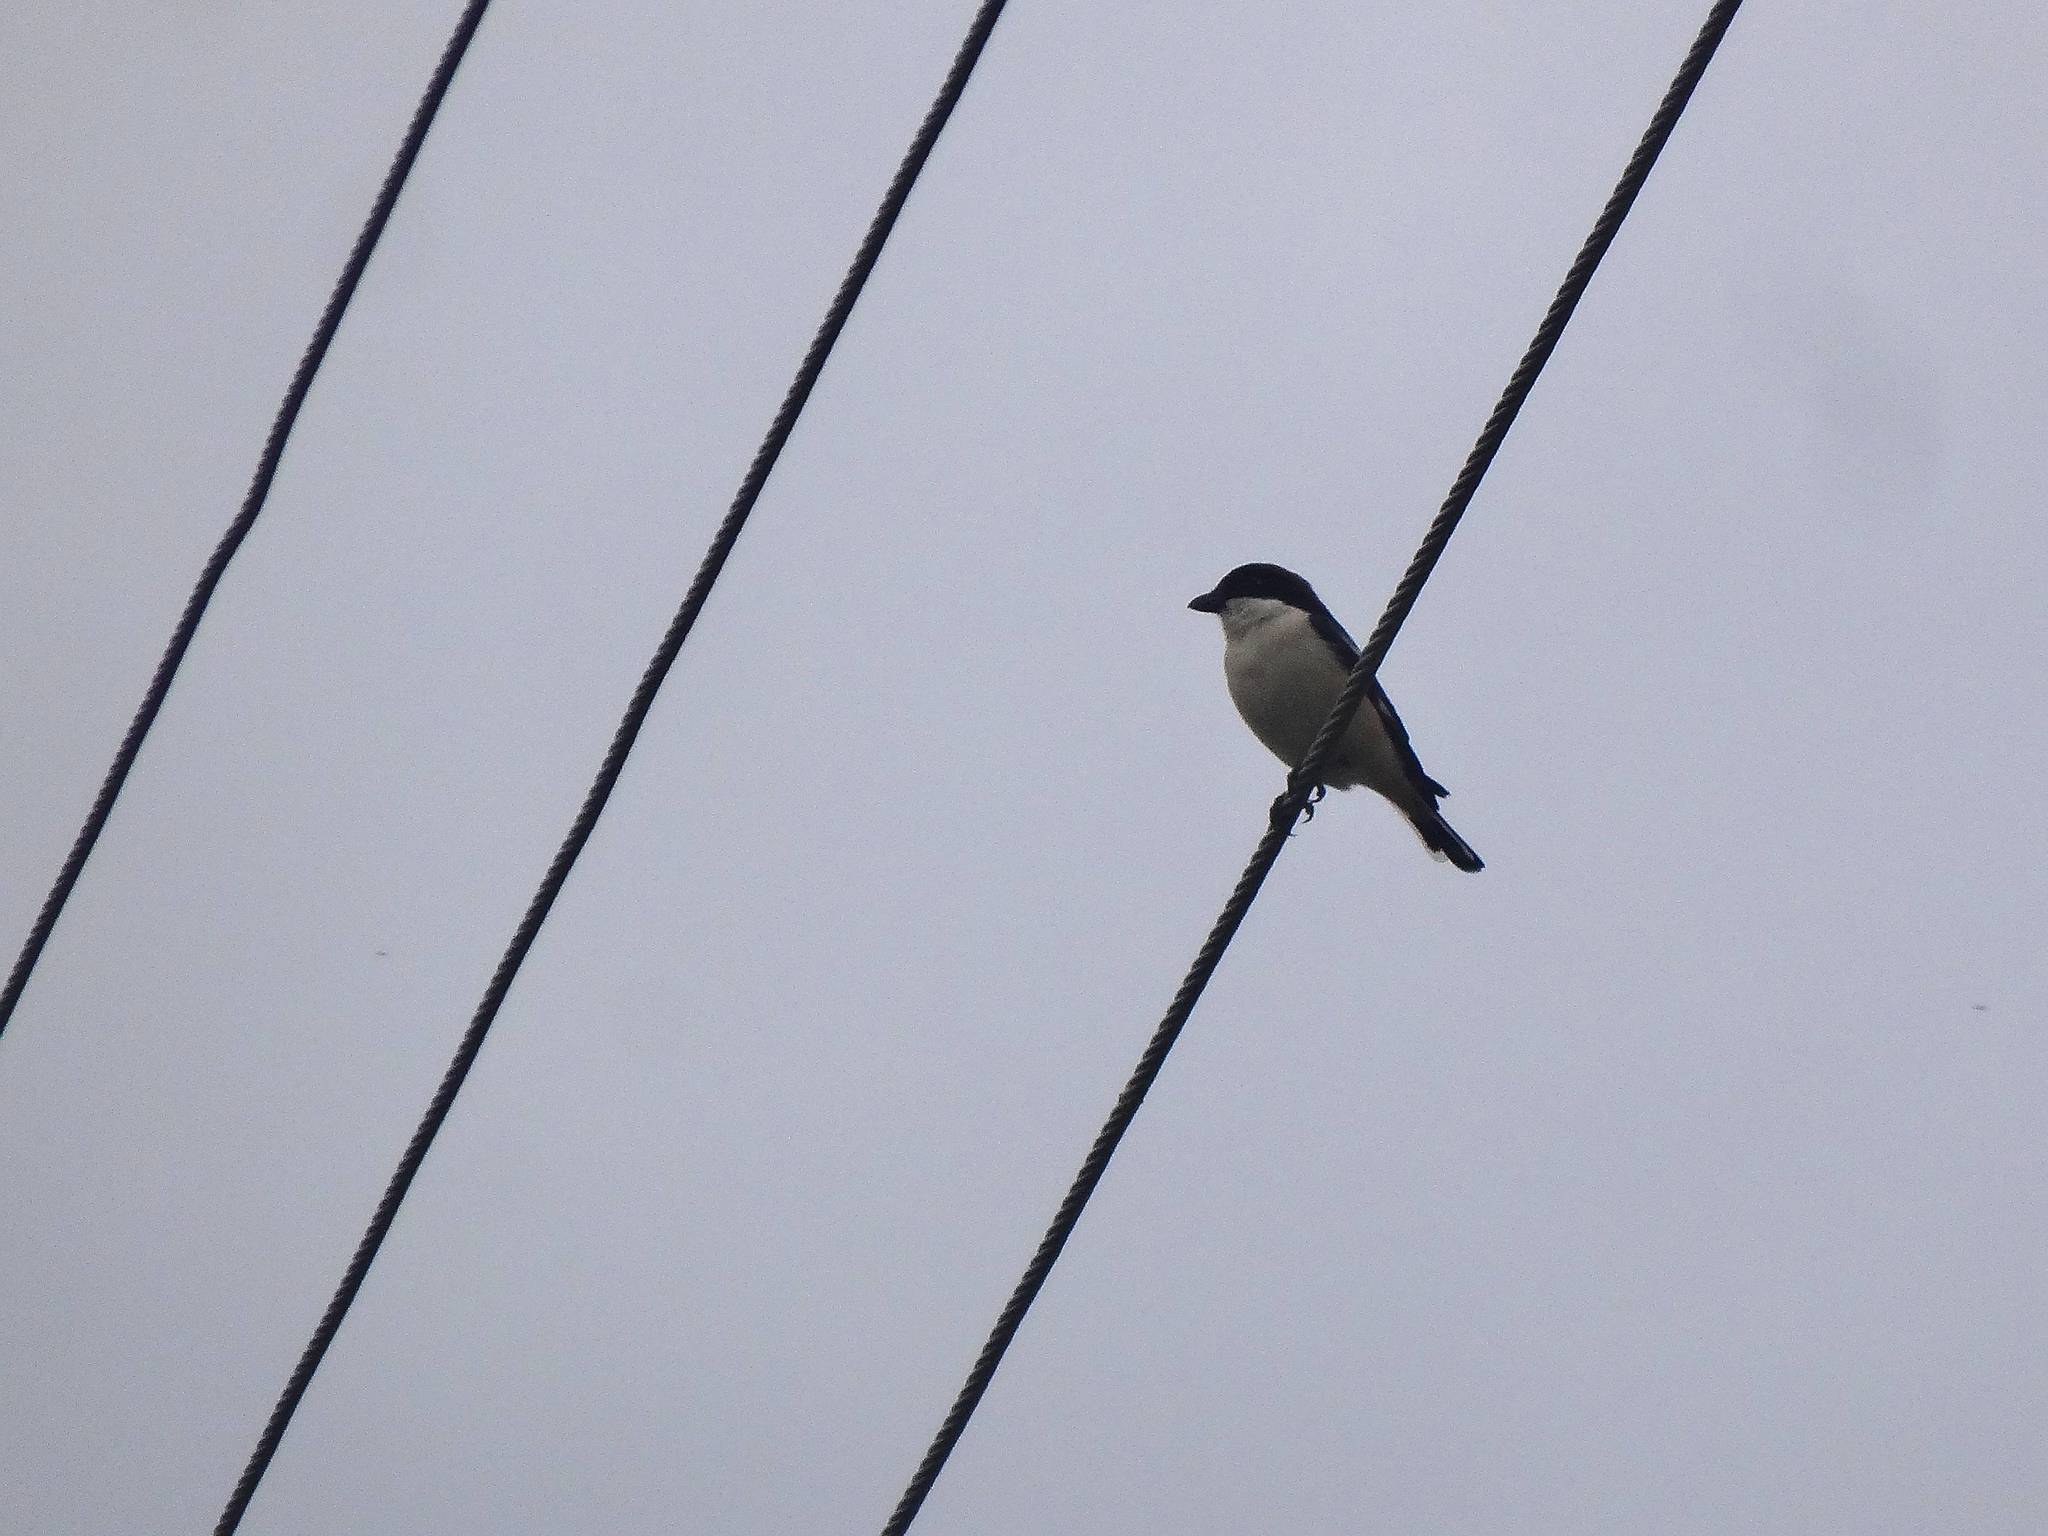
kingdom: Animalia
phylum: Chordata
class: Aves
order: Passeriformes
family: Laniidae
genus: Lanius
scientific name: Lanius minor
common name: Lesser grey shrike
